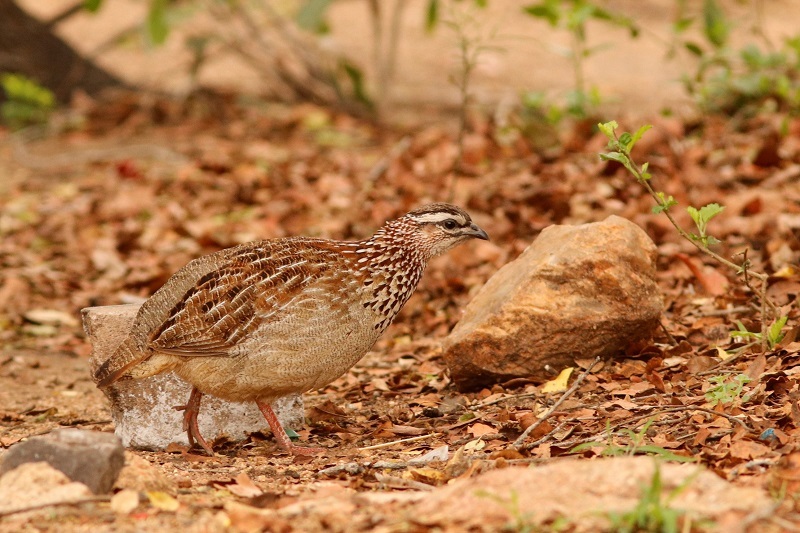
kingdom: Animalia
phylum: Chordata
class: Aves
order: Galliformes
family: Phasianidae
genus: Ortygornis
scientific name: Ortygornis sephaena
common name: Crested francolin
